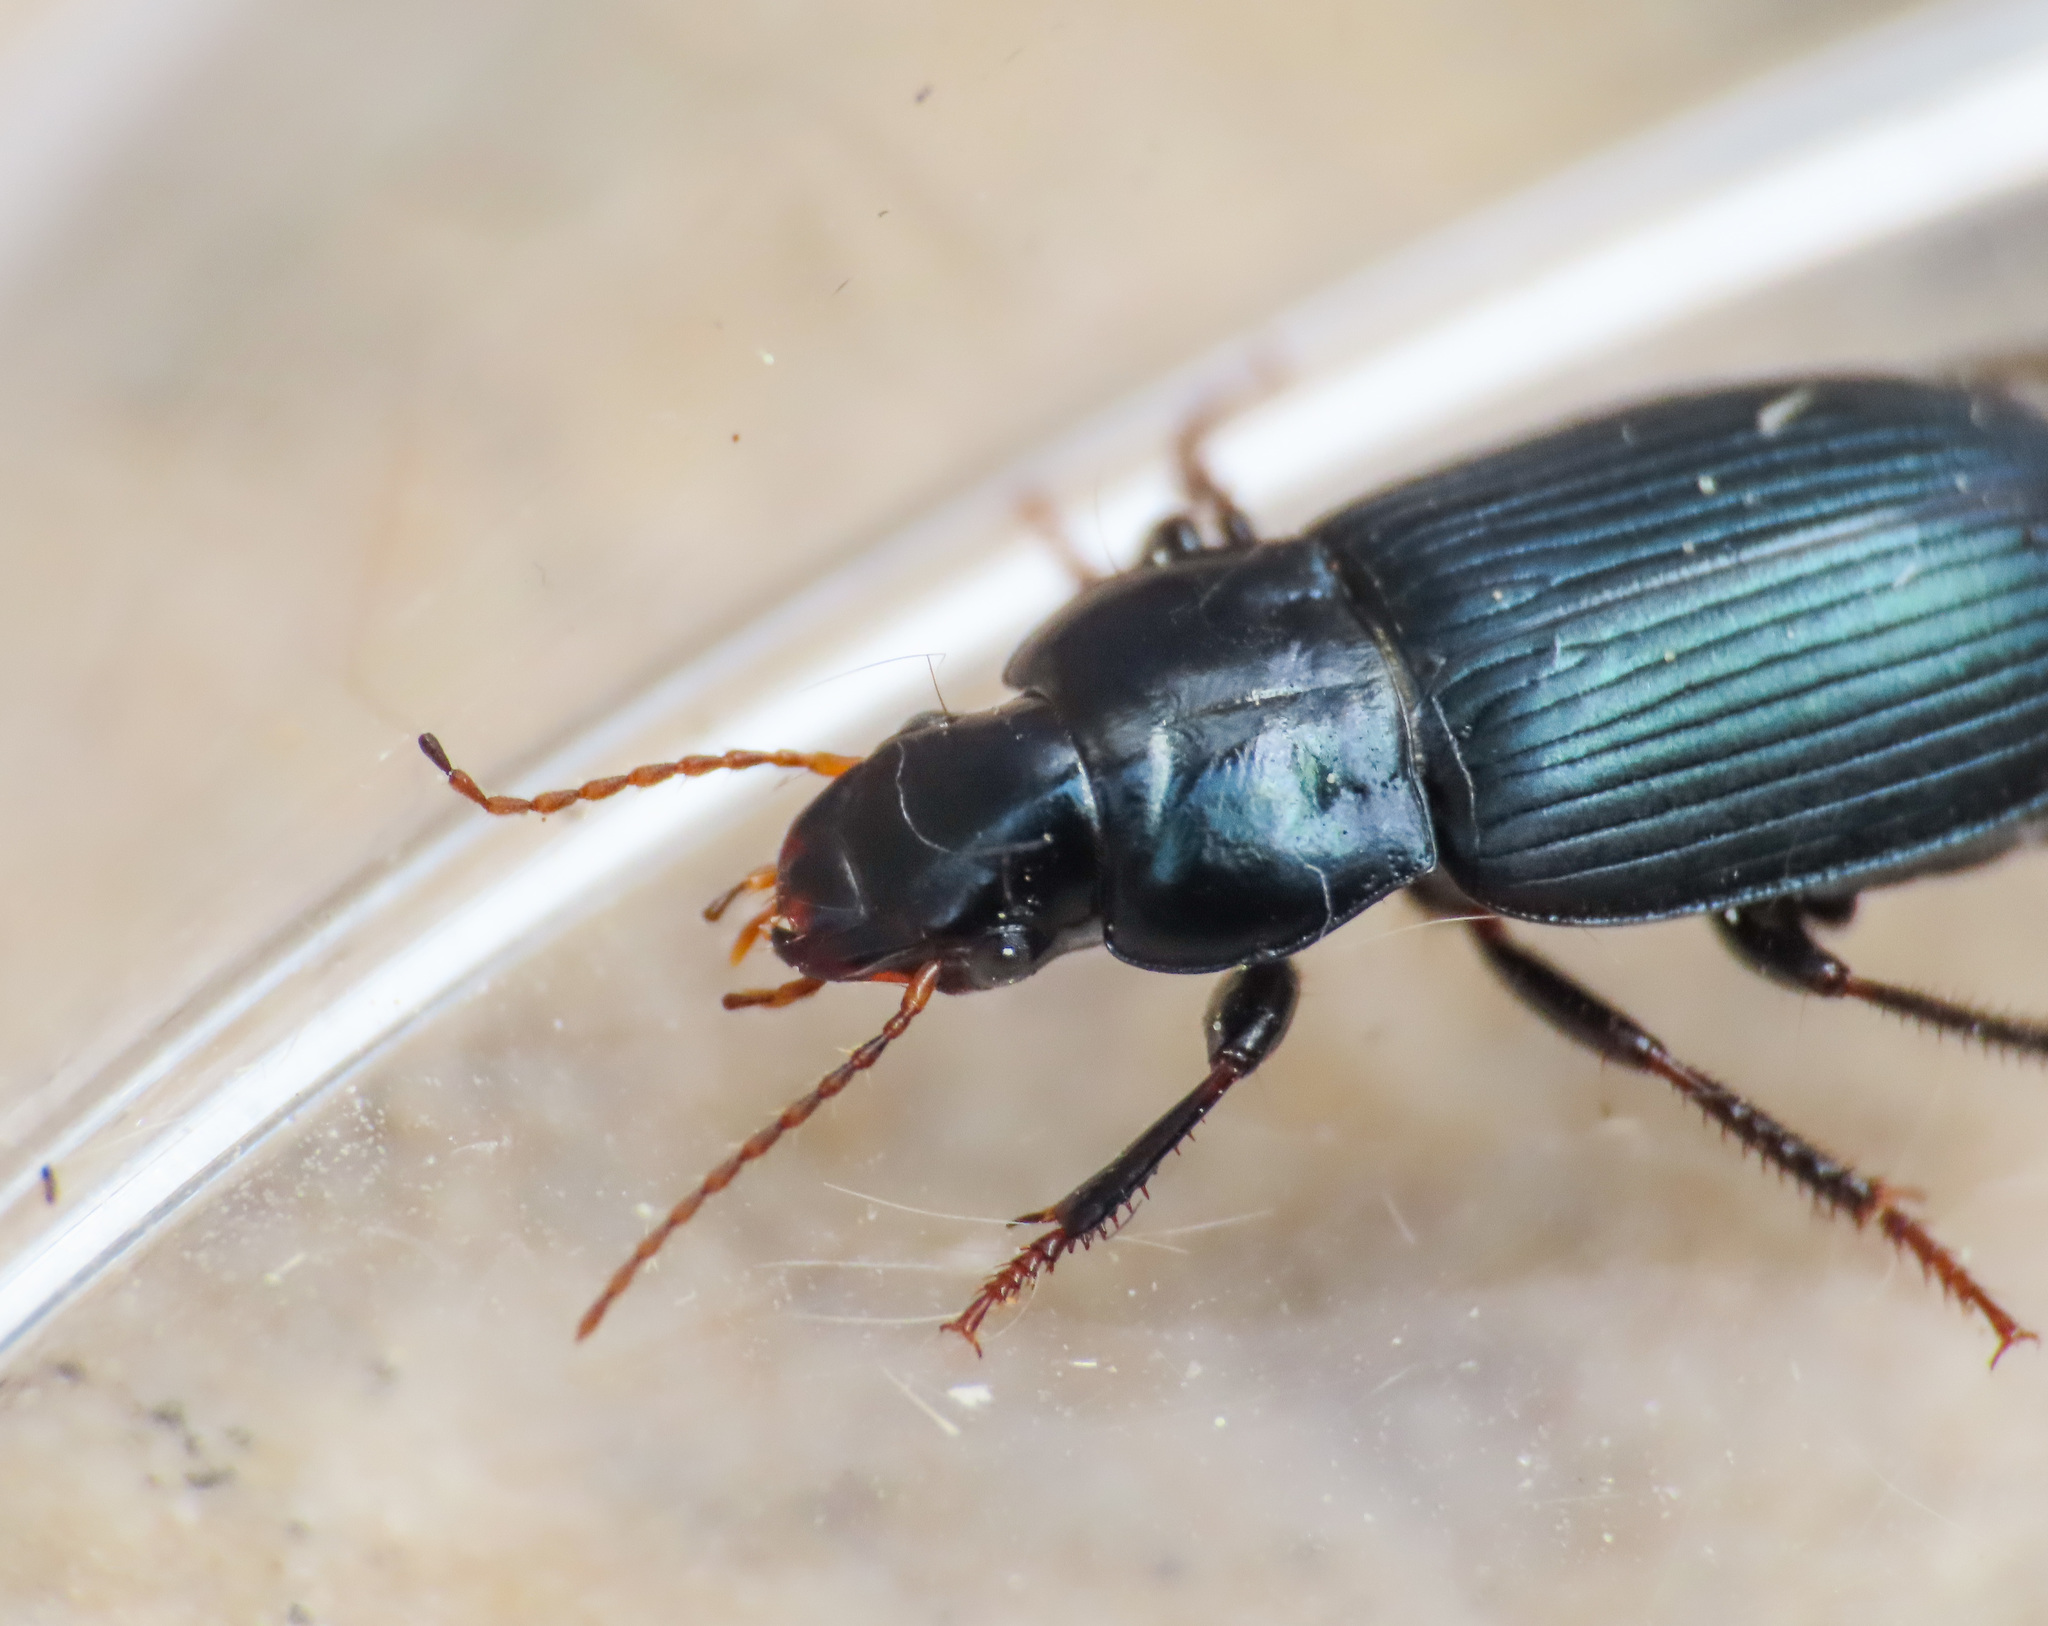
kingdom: Animalia
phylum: Arthropoda
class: Insecta
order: Coleoptera
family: Carabidae
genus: Harpalus
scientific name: Harpalus honestus
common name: St. bees seed-eater
